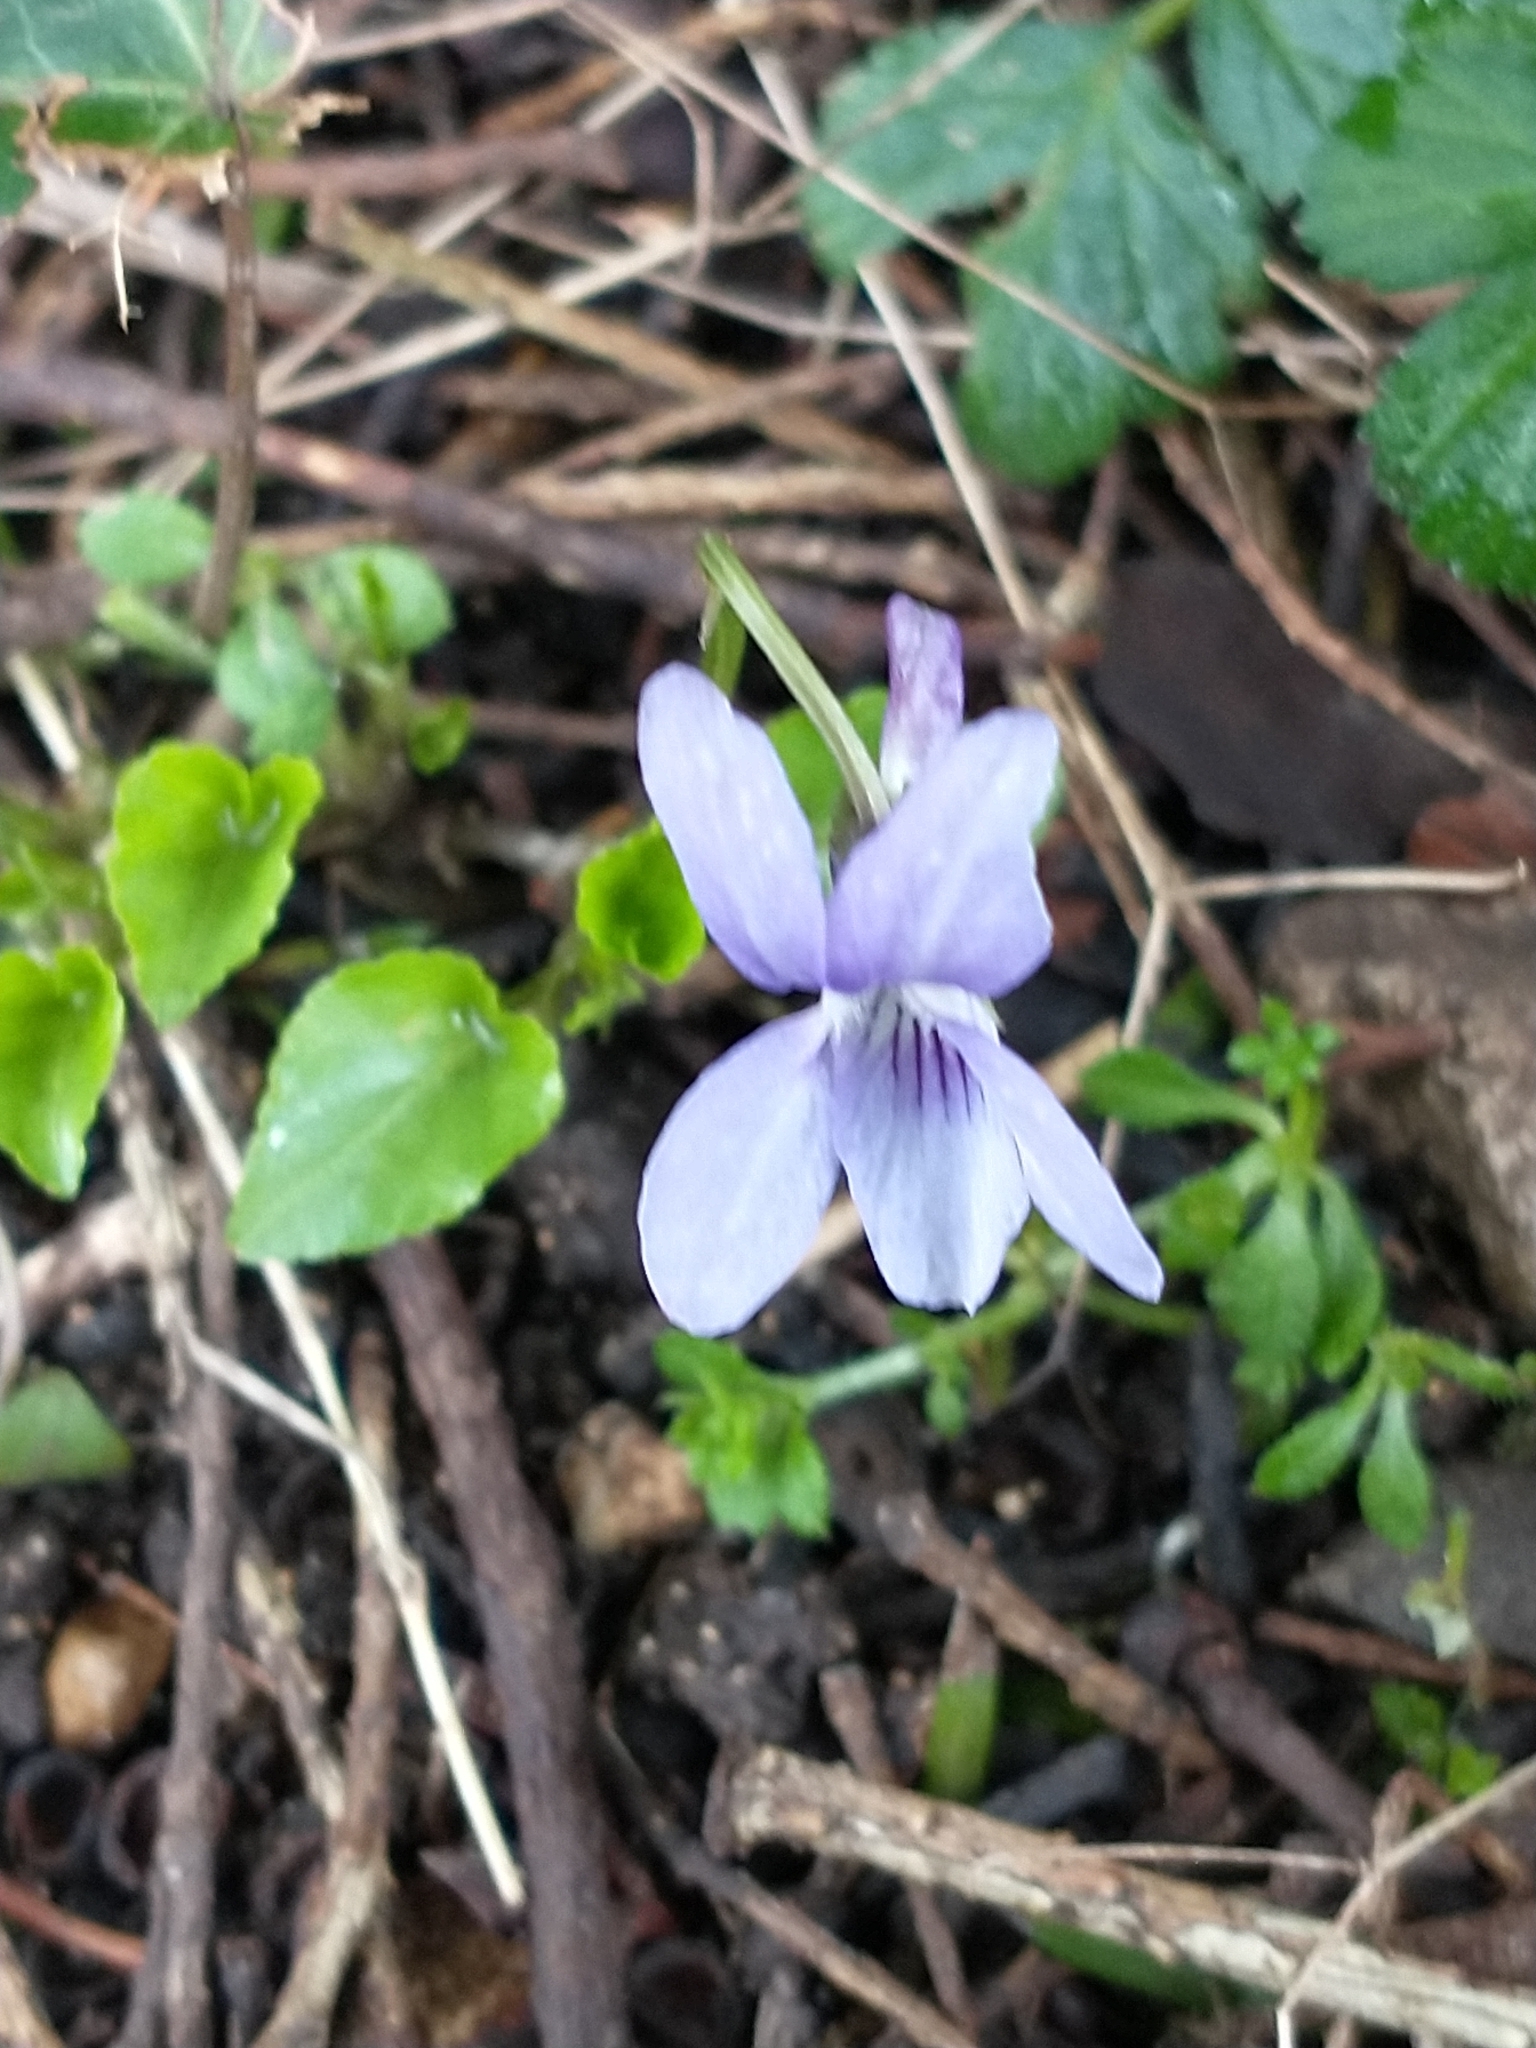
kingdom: Plantae
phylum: Tracheophyta
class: Magnoliopsida
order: Malpighiales
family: Violaceae
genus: Viola
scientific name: Viola reichenbachiana
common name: Early dog-violet
